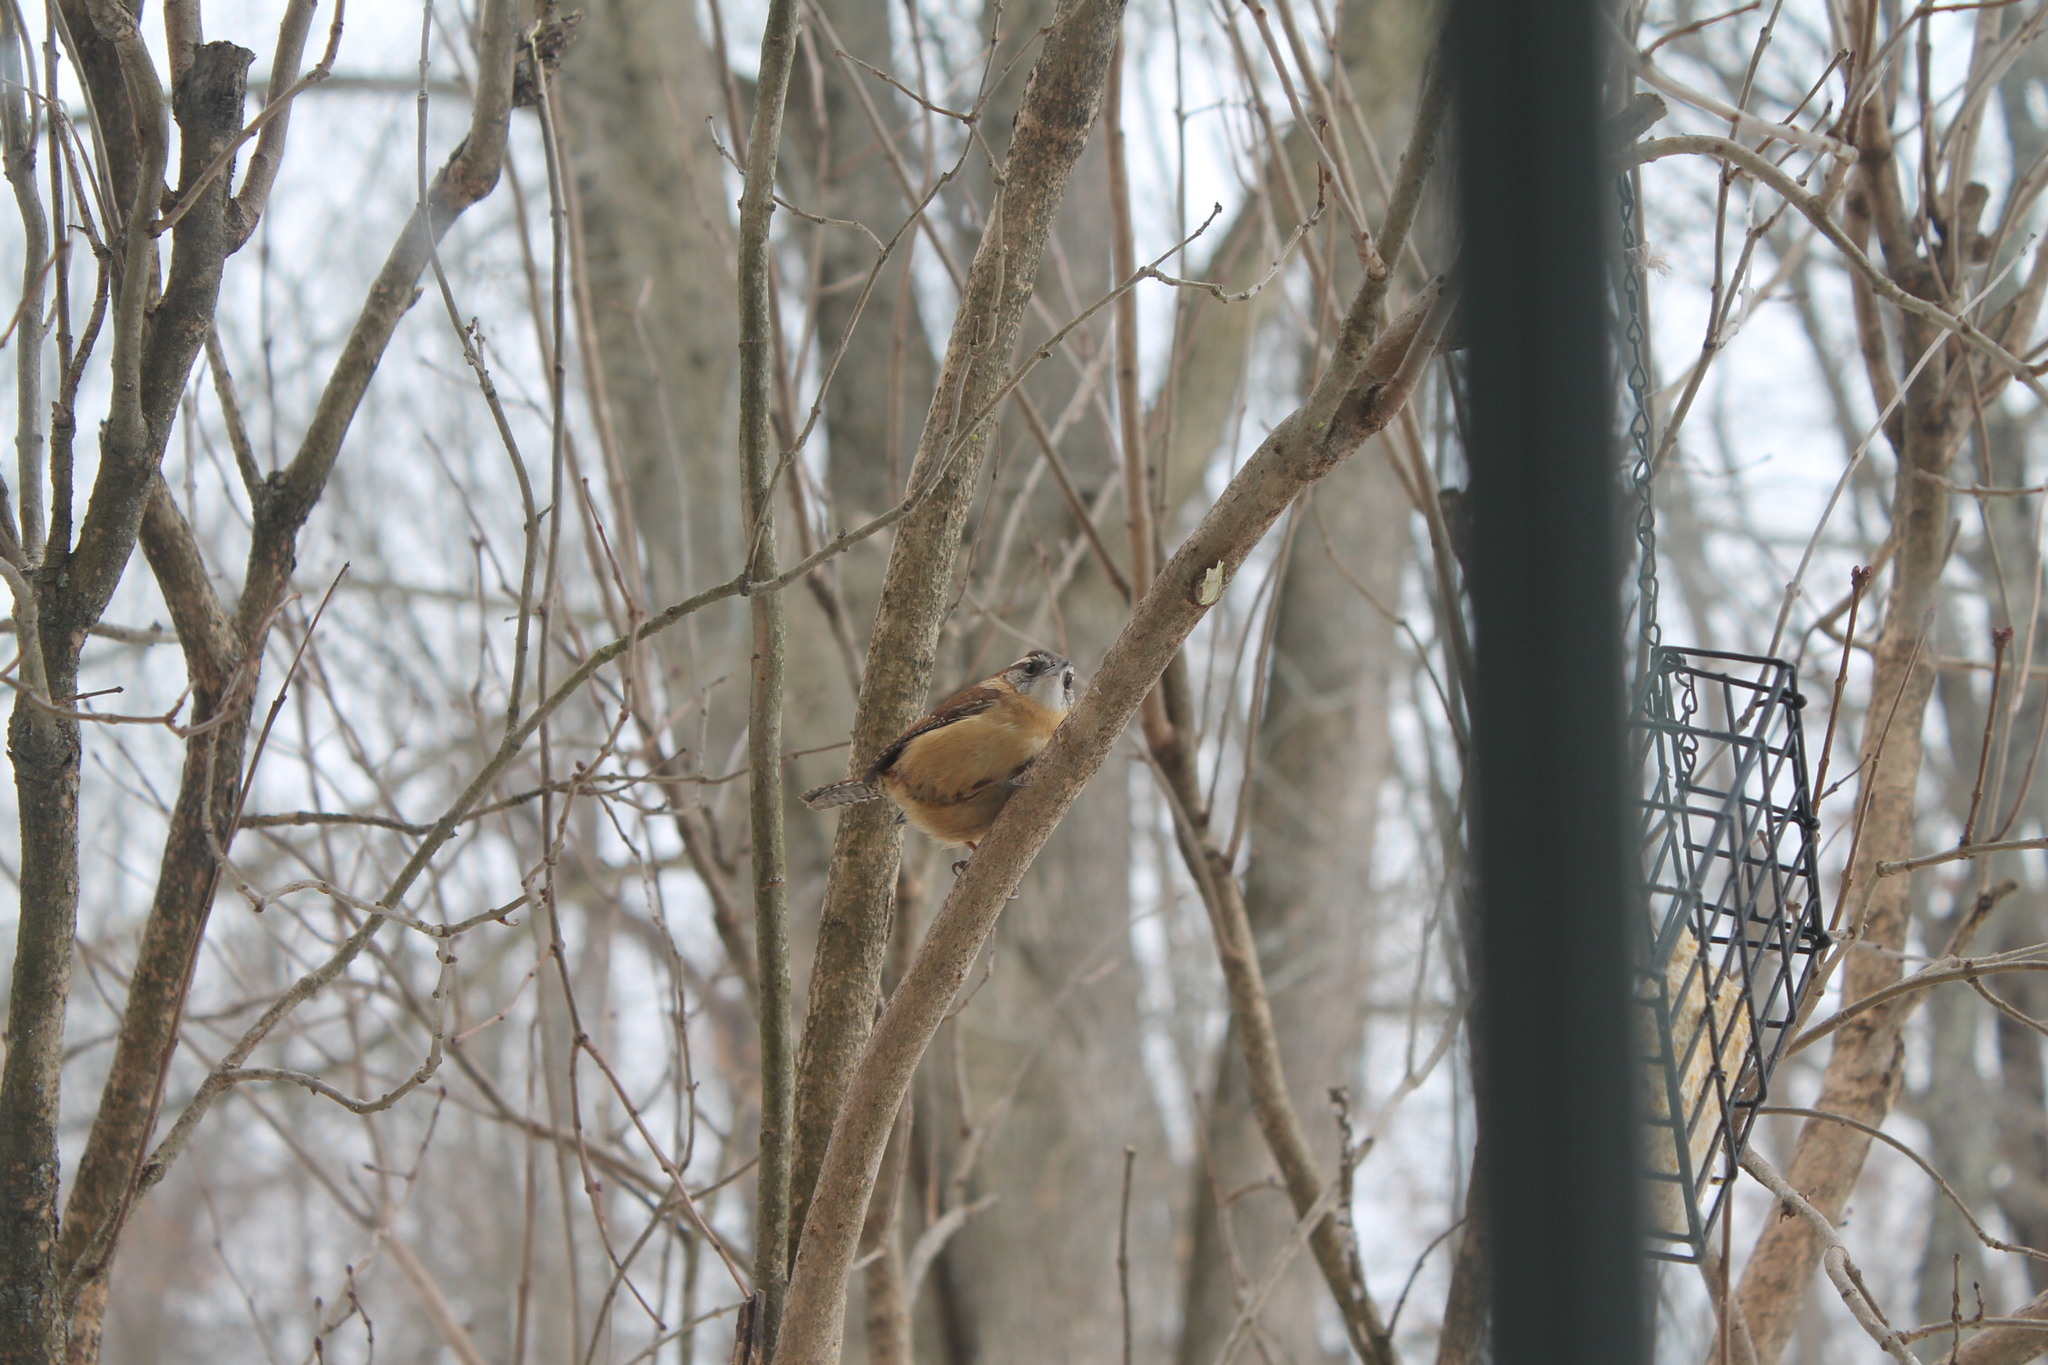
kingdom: Animalia
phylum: Chordata
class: Aves
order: Passeriformes
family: Troglodytidae
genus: Thryothorus
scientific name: Thryothorus ludovicianus
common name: Carolina wren
